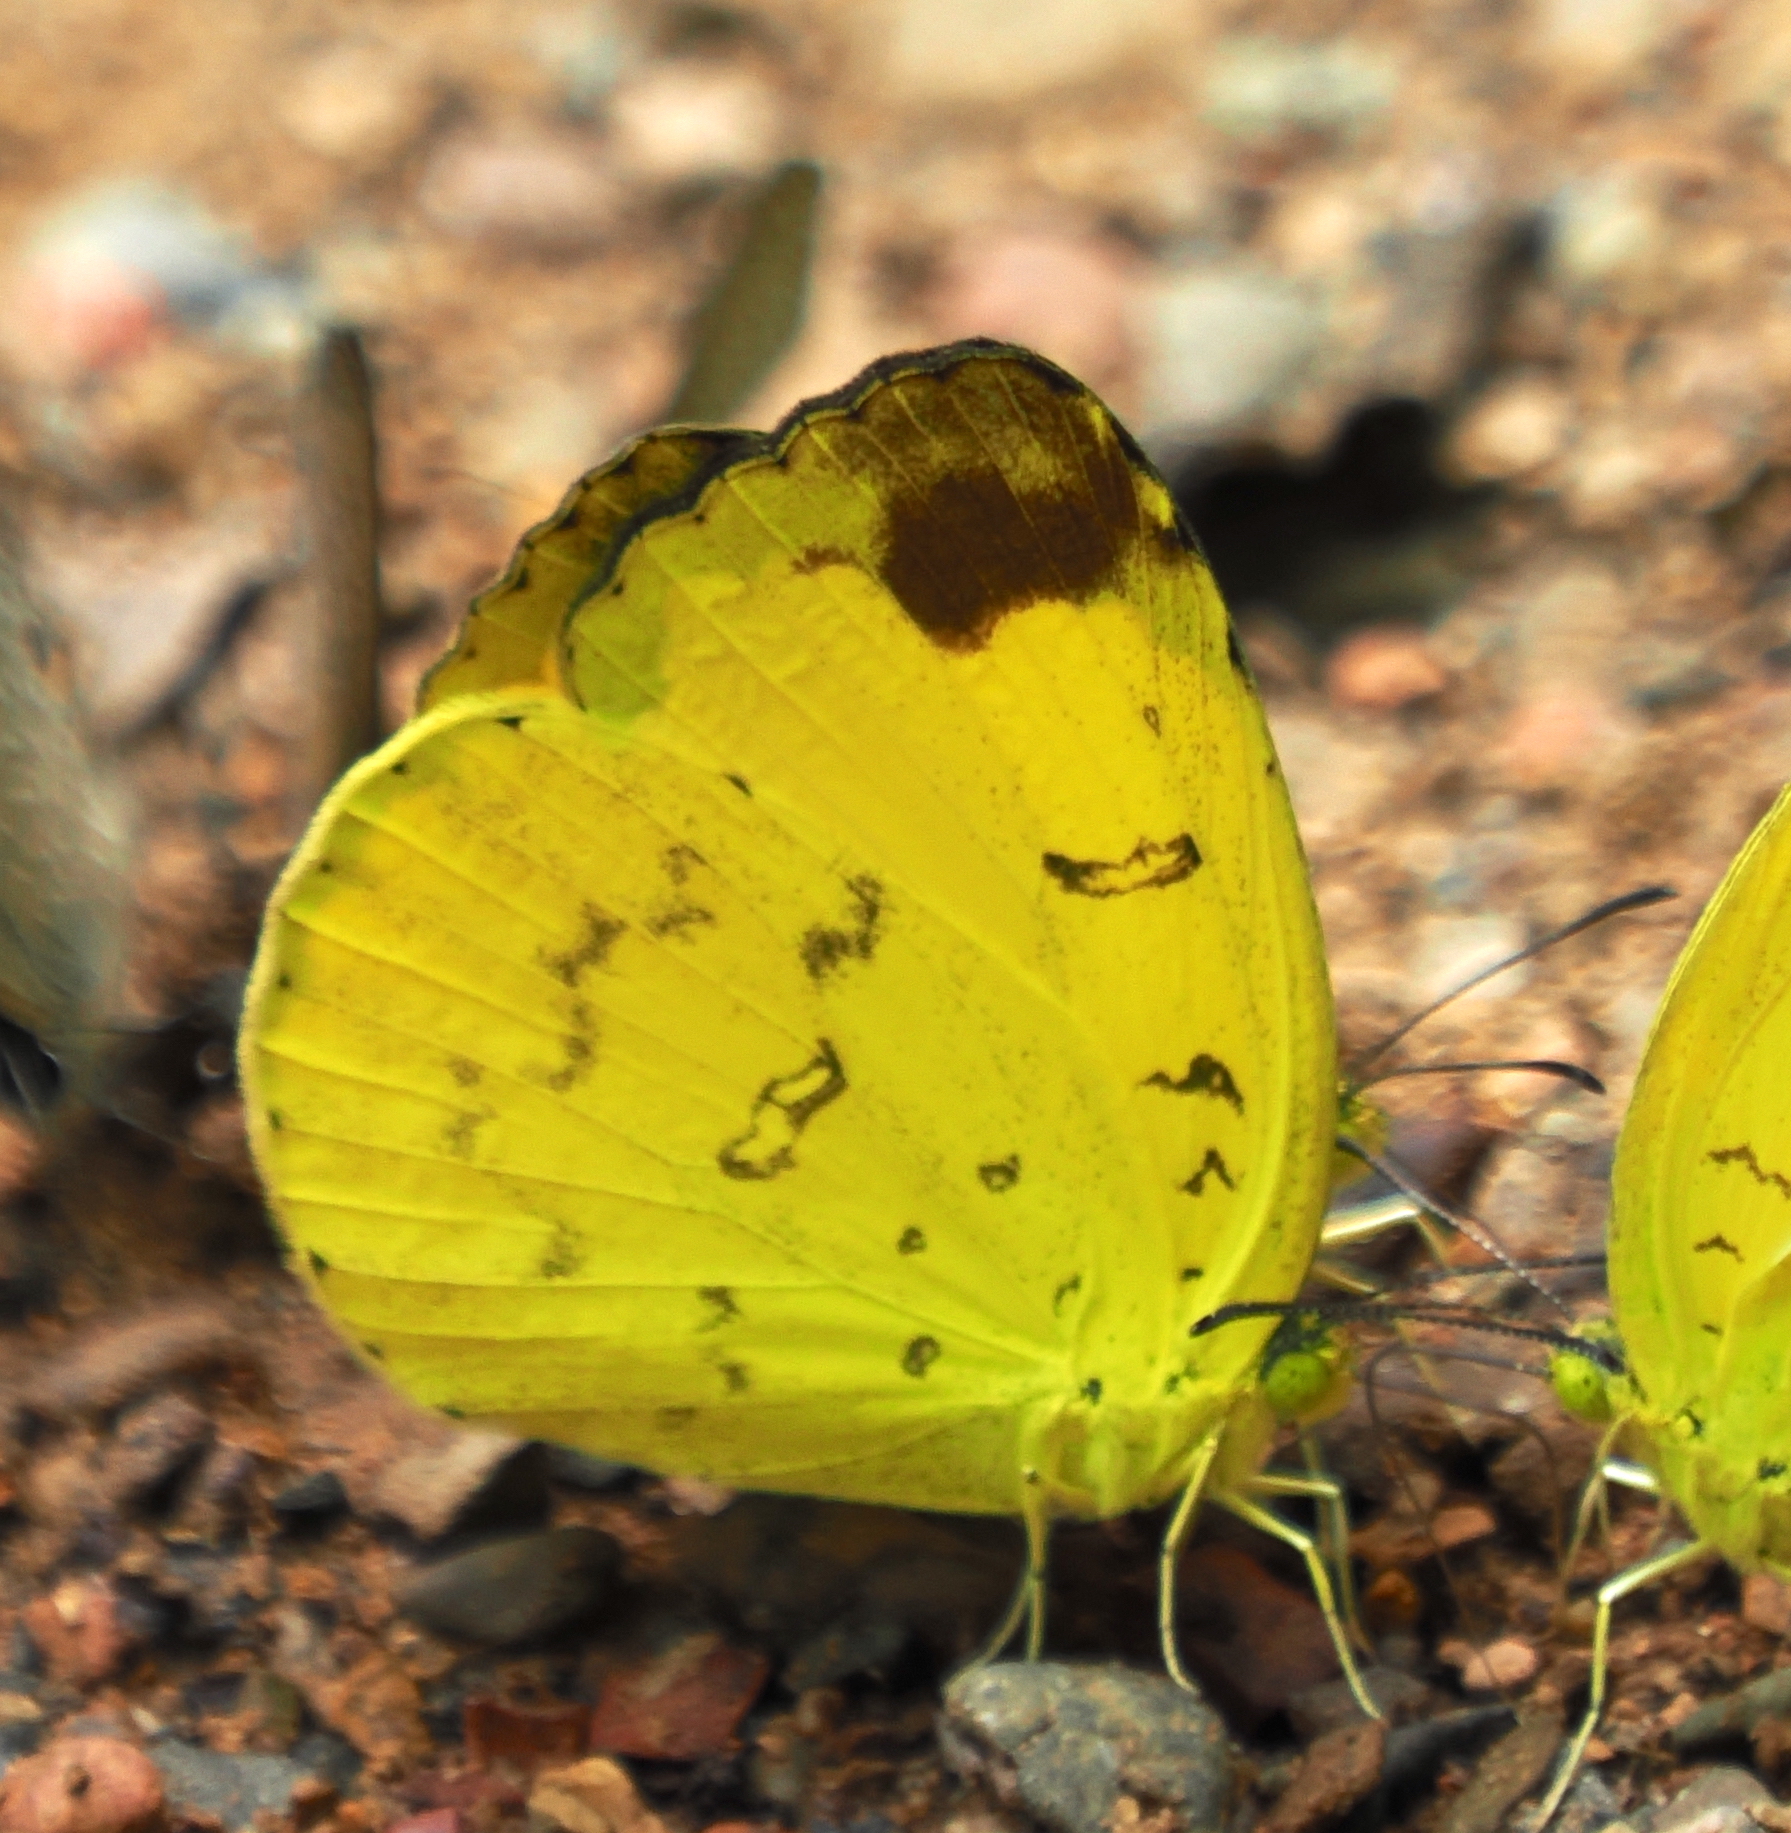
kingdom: Animalia
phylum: Arthropoda
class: Insecta
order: Lepidoptera
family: Pieridae
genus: Eurema
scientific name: Eurema blanda
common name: Three-spot grass yellow
